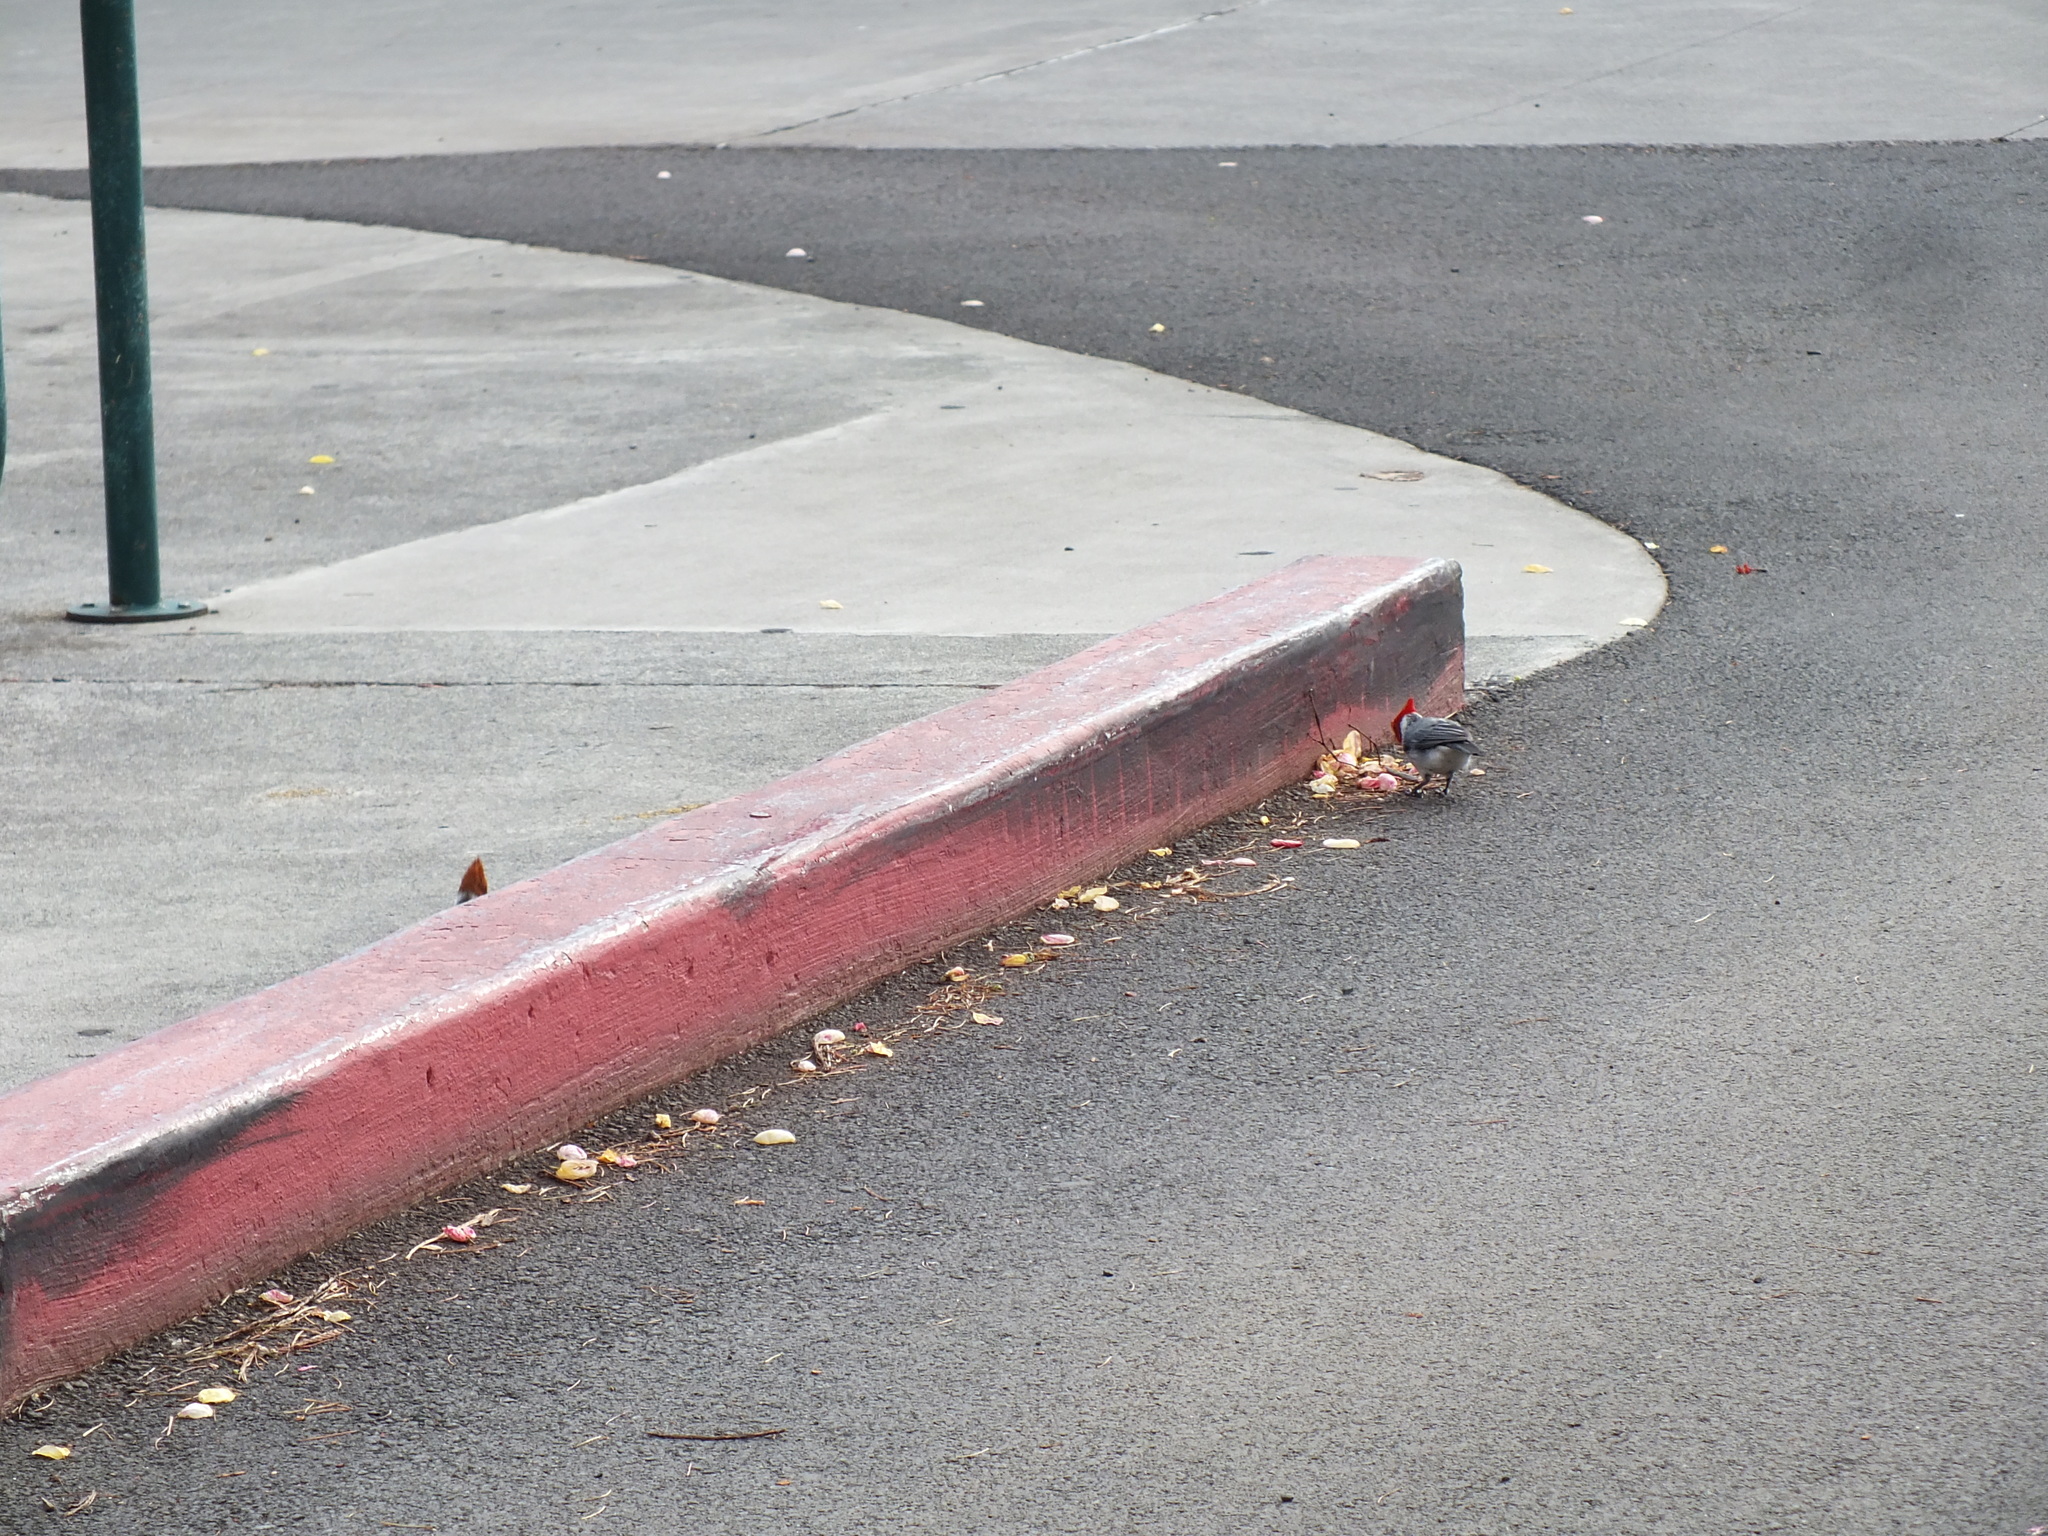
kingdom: Animalia
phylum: Chordata
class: Aves
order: Passeriformes
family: Thraupidae
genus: Paroaria
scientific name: Paroaria coronata
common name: Red-crested cardinal
